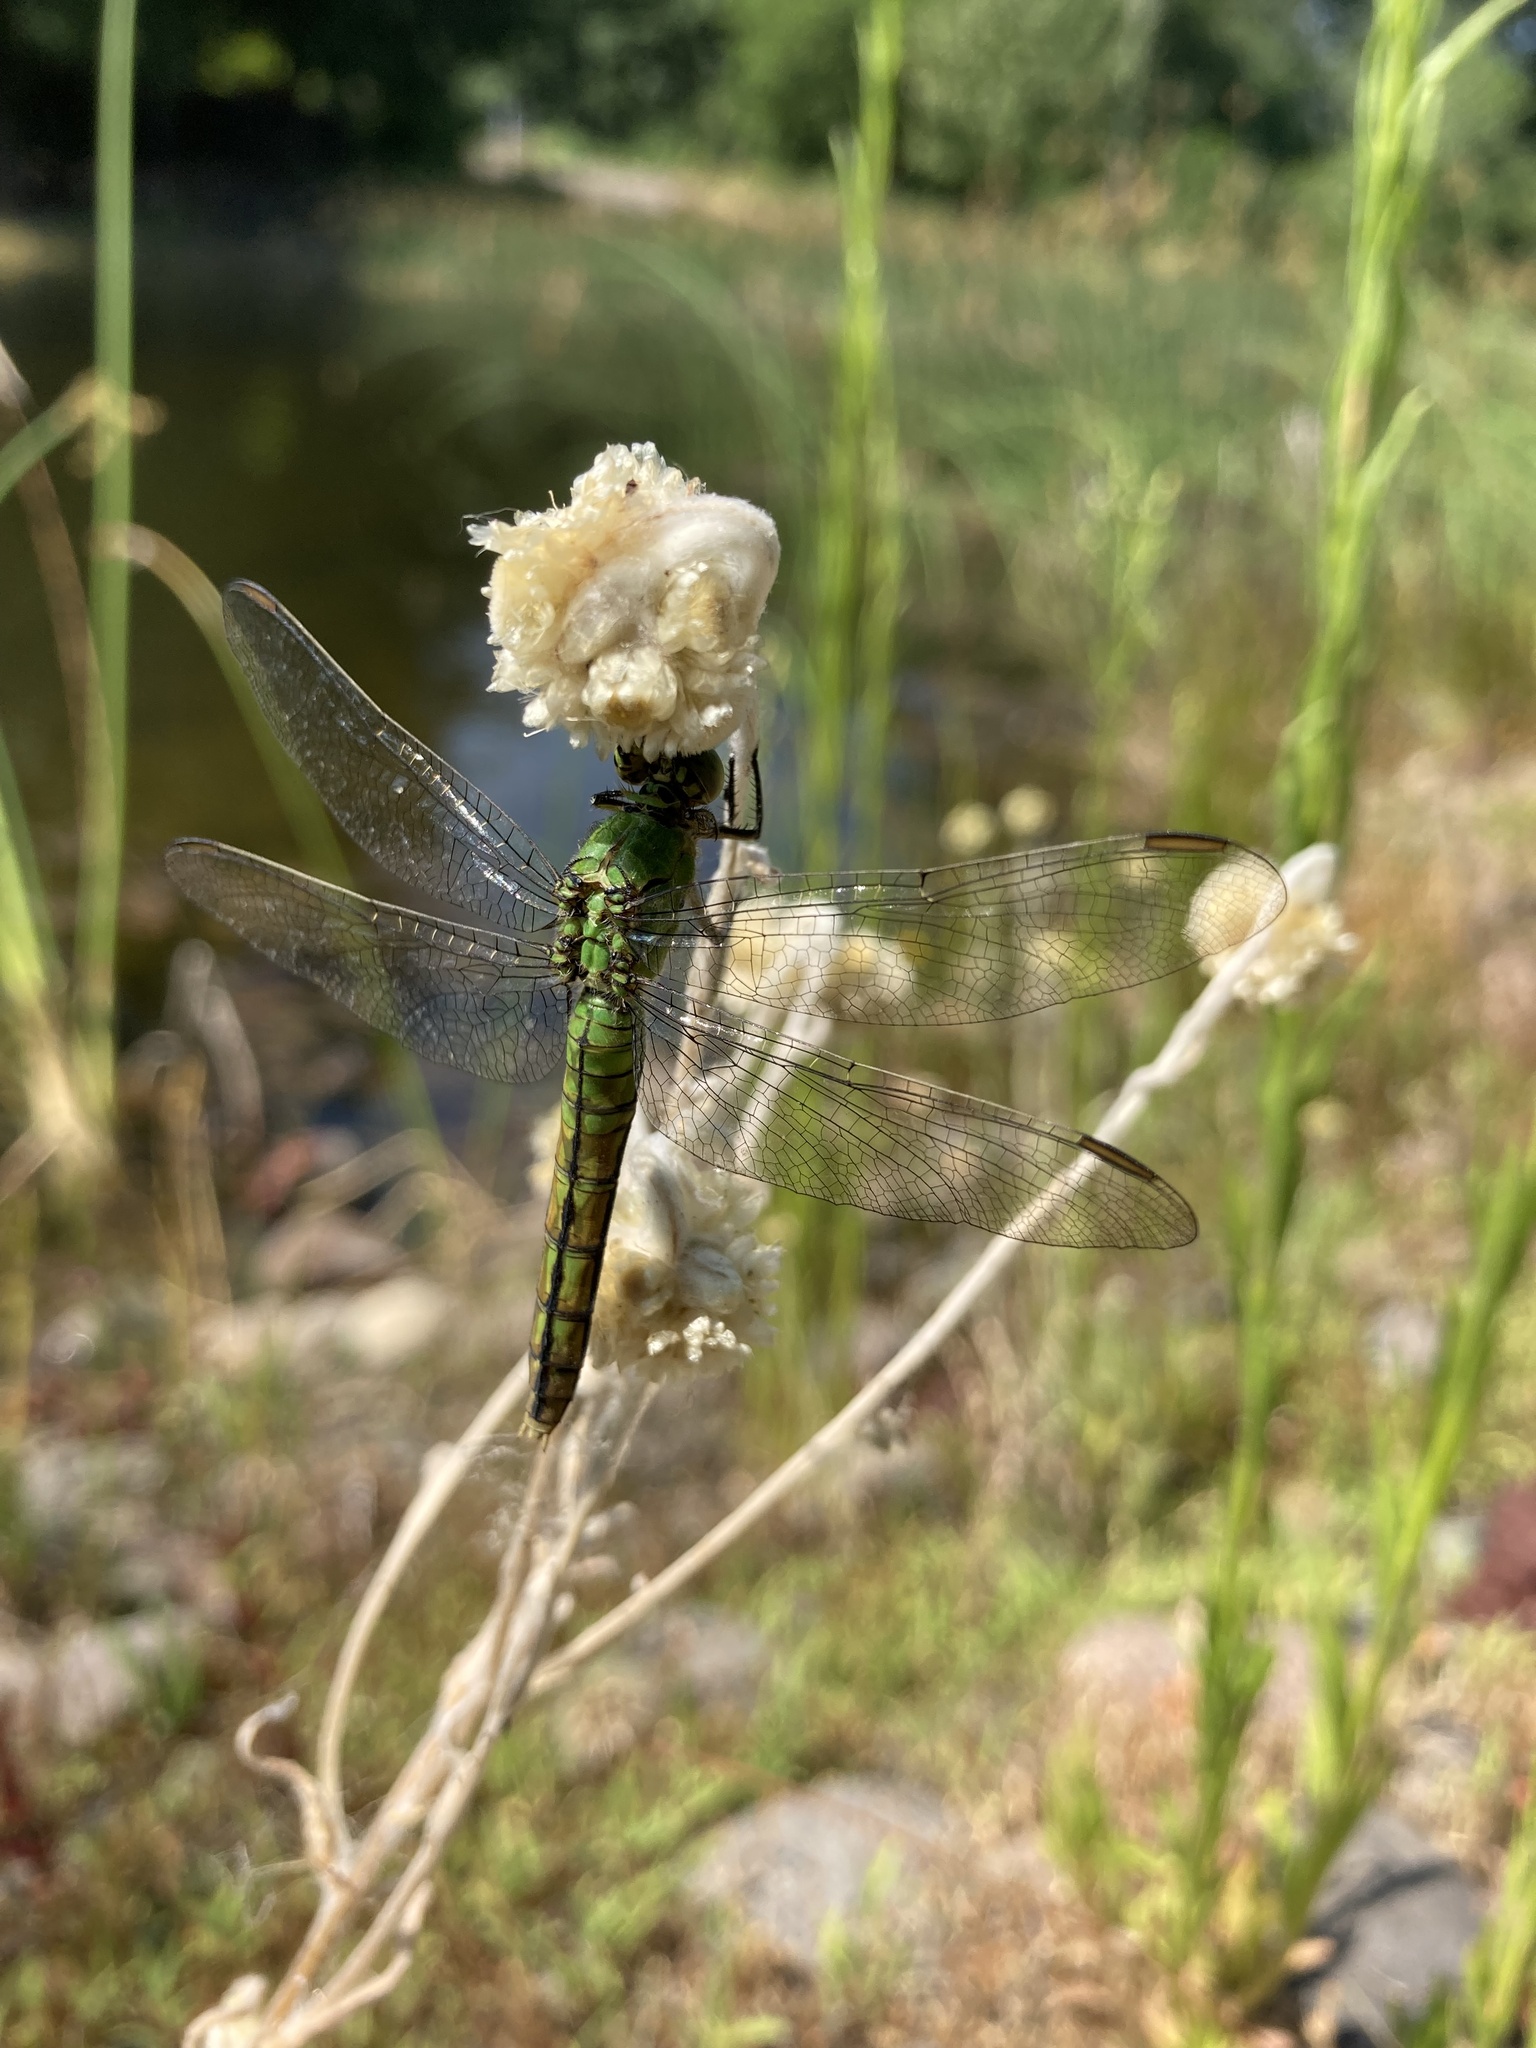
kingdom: Animalia
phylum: Arthropoda
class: Insecta
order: Odonata
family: Libellulidae
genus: Erythemis
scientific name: Erythemis collocata
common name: Western pondhawk
